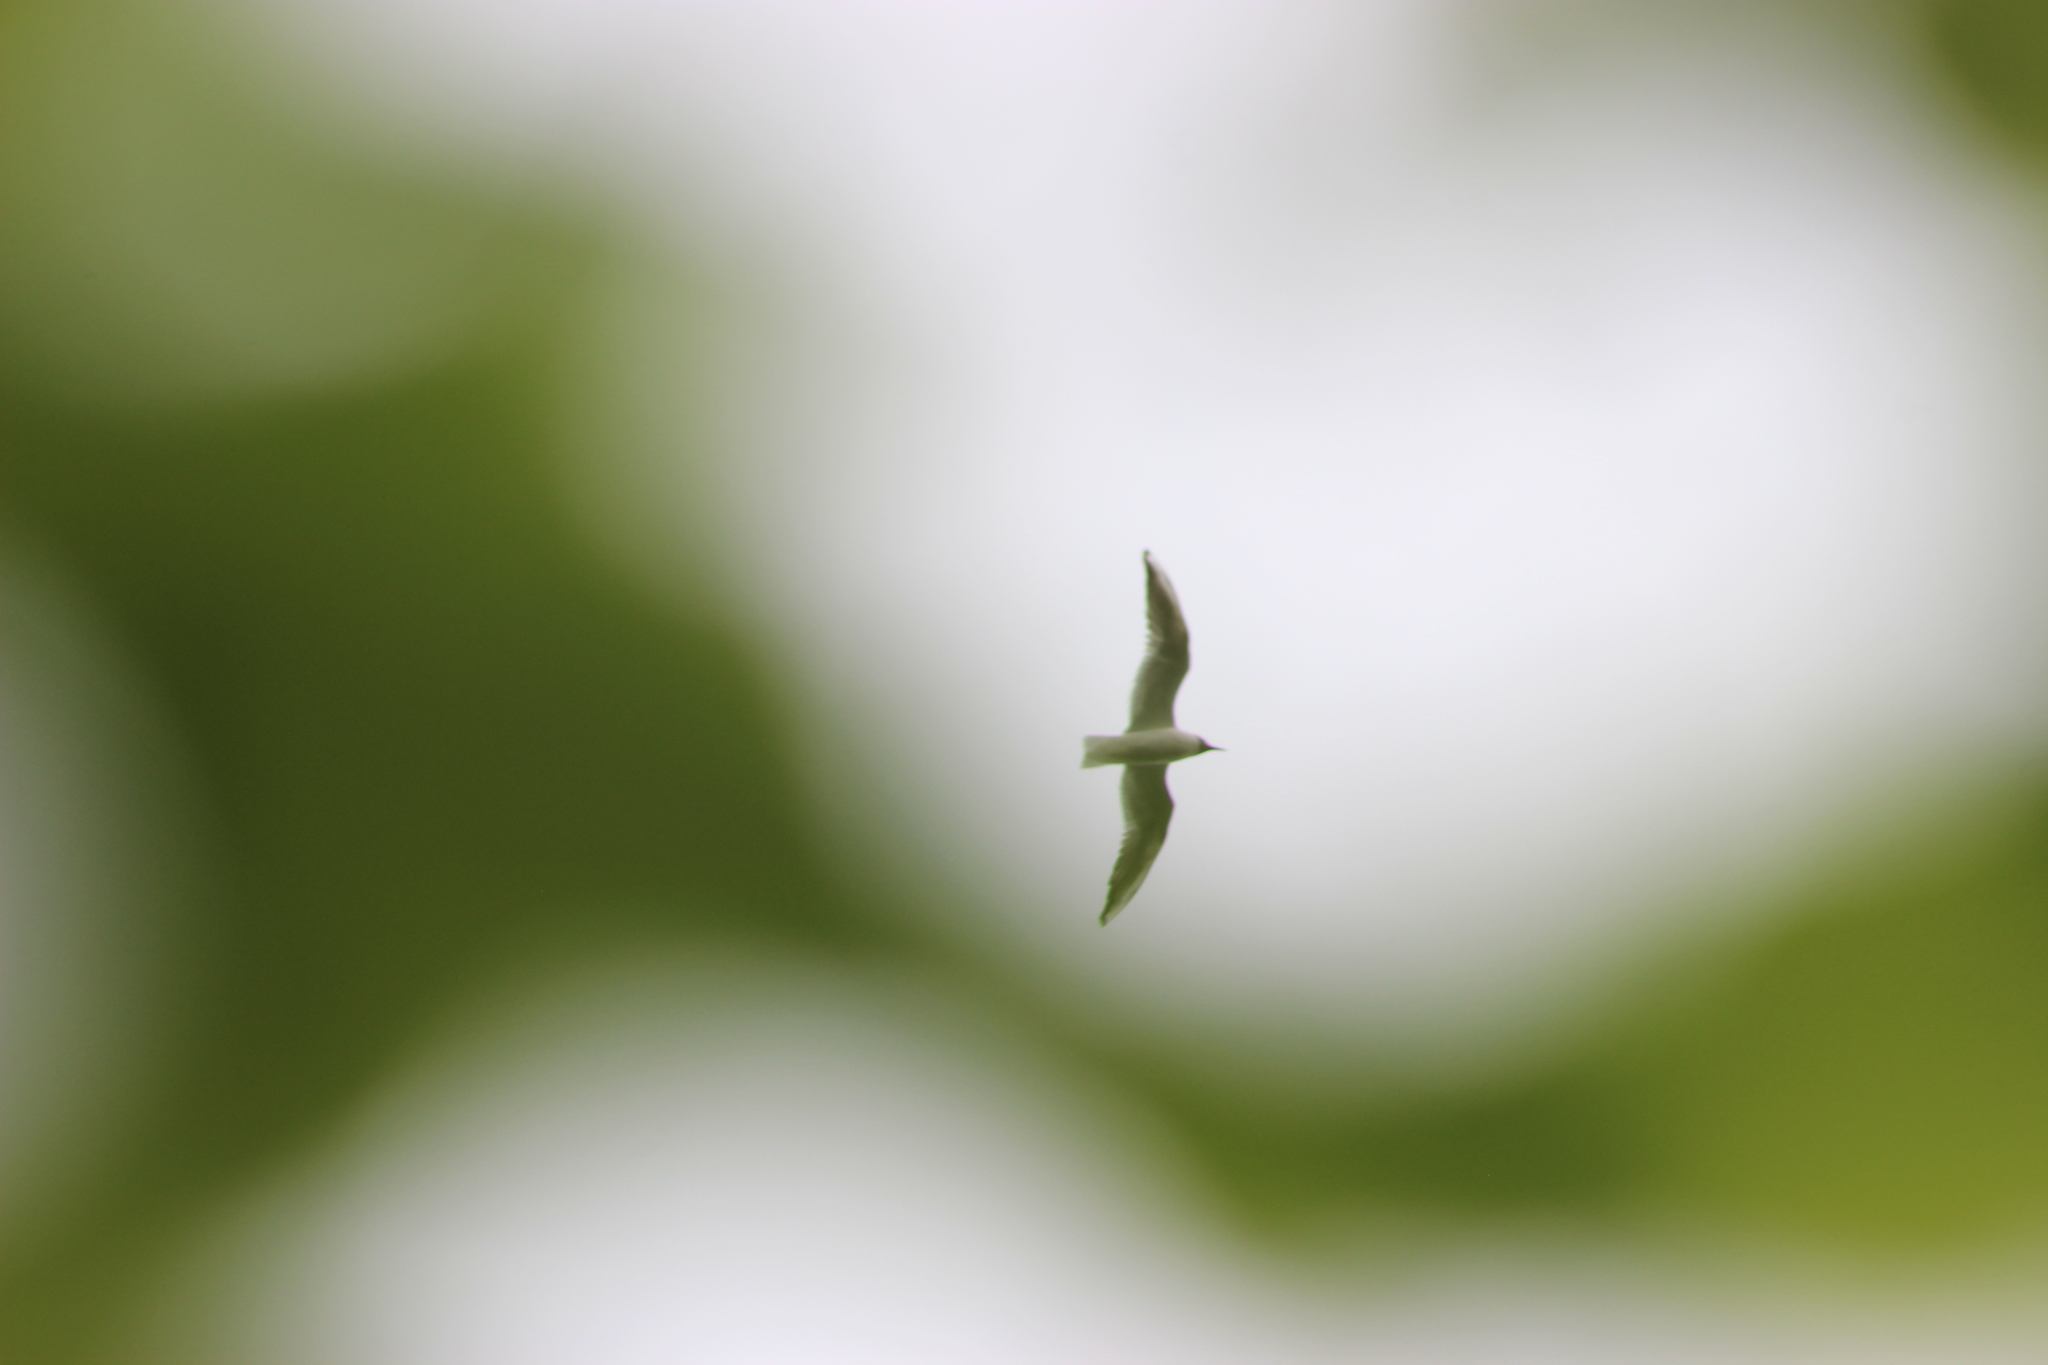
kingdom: Animalia
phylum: Chordata
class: Aves
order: Charadriiformes
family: Laridae
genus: Chroicocephalus
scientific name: Chroicocephalus ridibundus
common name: Black-headed gull
